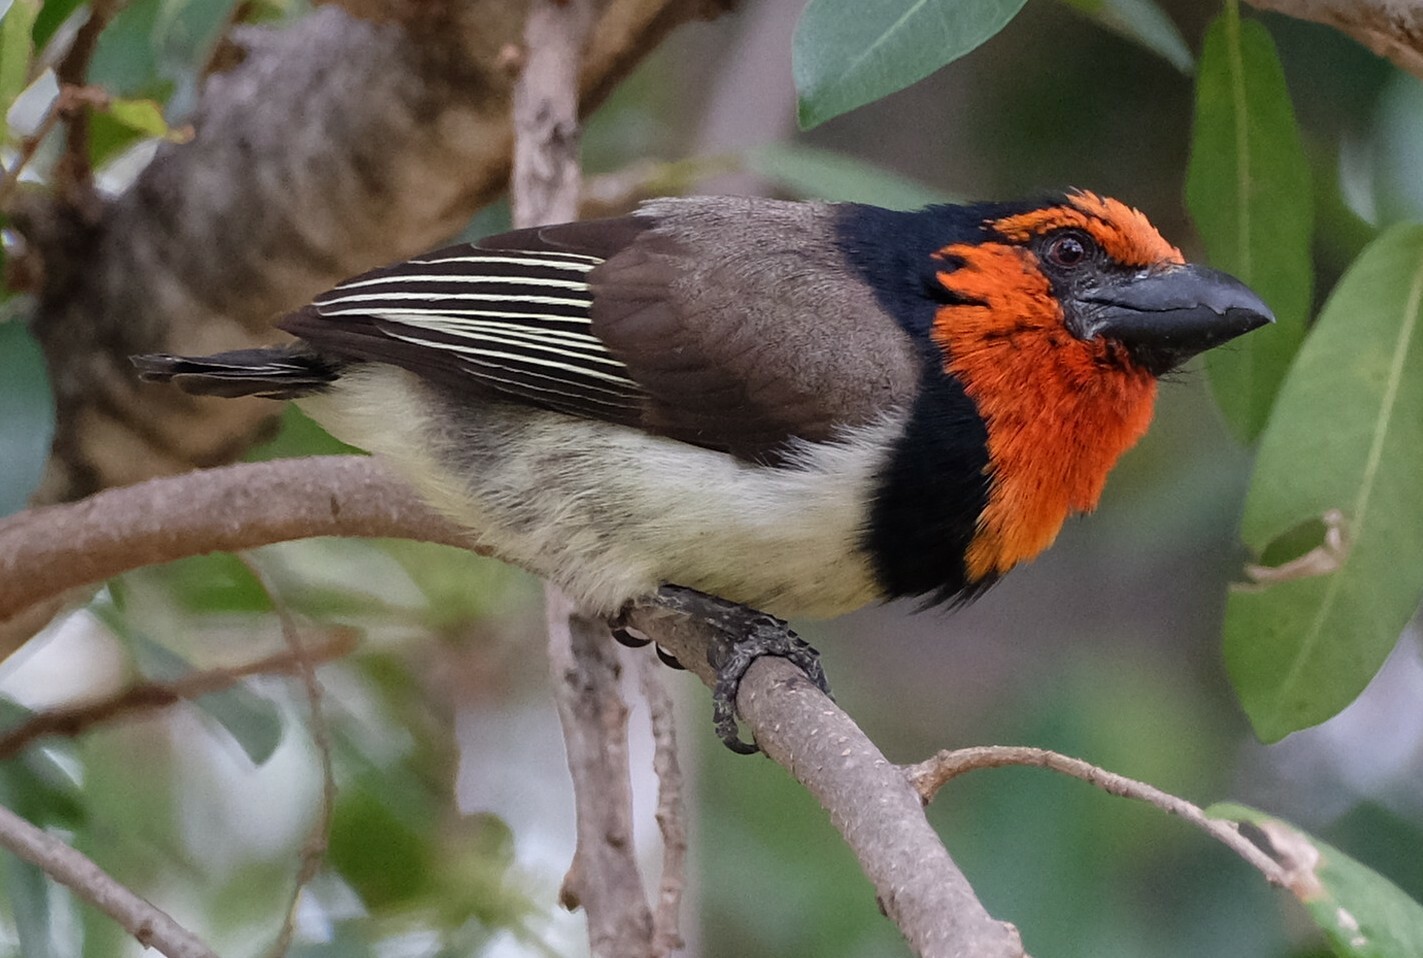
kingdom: Animalia
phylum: Chordata
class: Aves
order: Piciformes
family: Lybiidae
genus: Lybius
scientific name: Lybius torquatus
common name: Black-collared barbet
